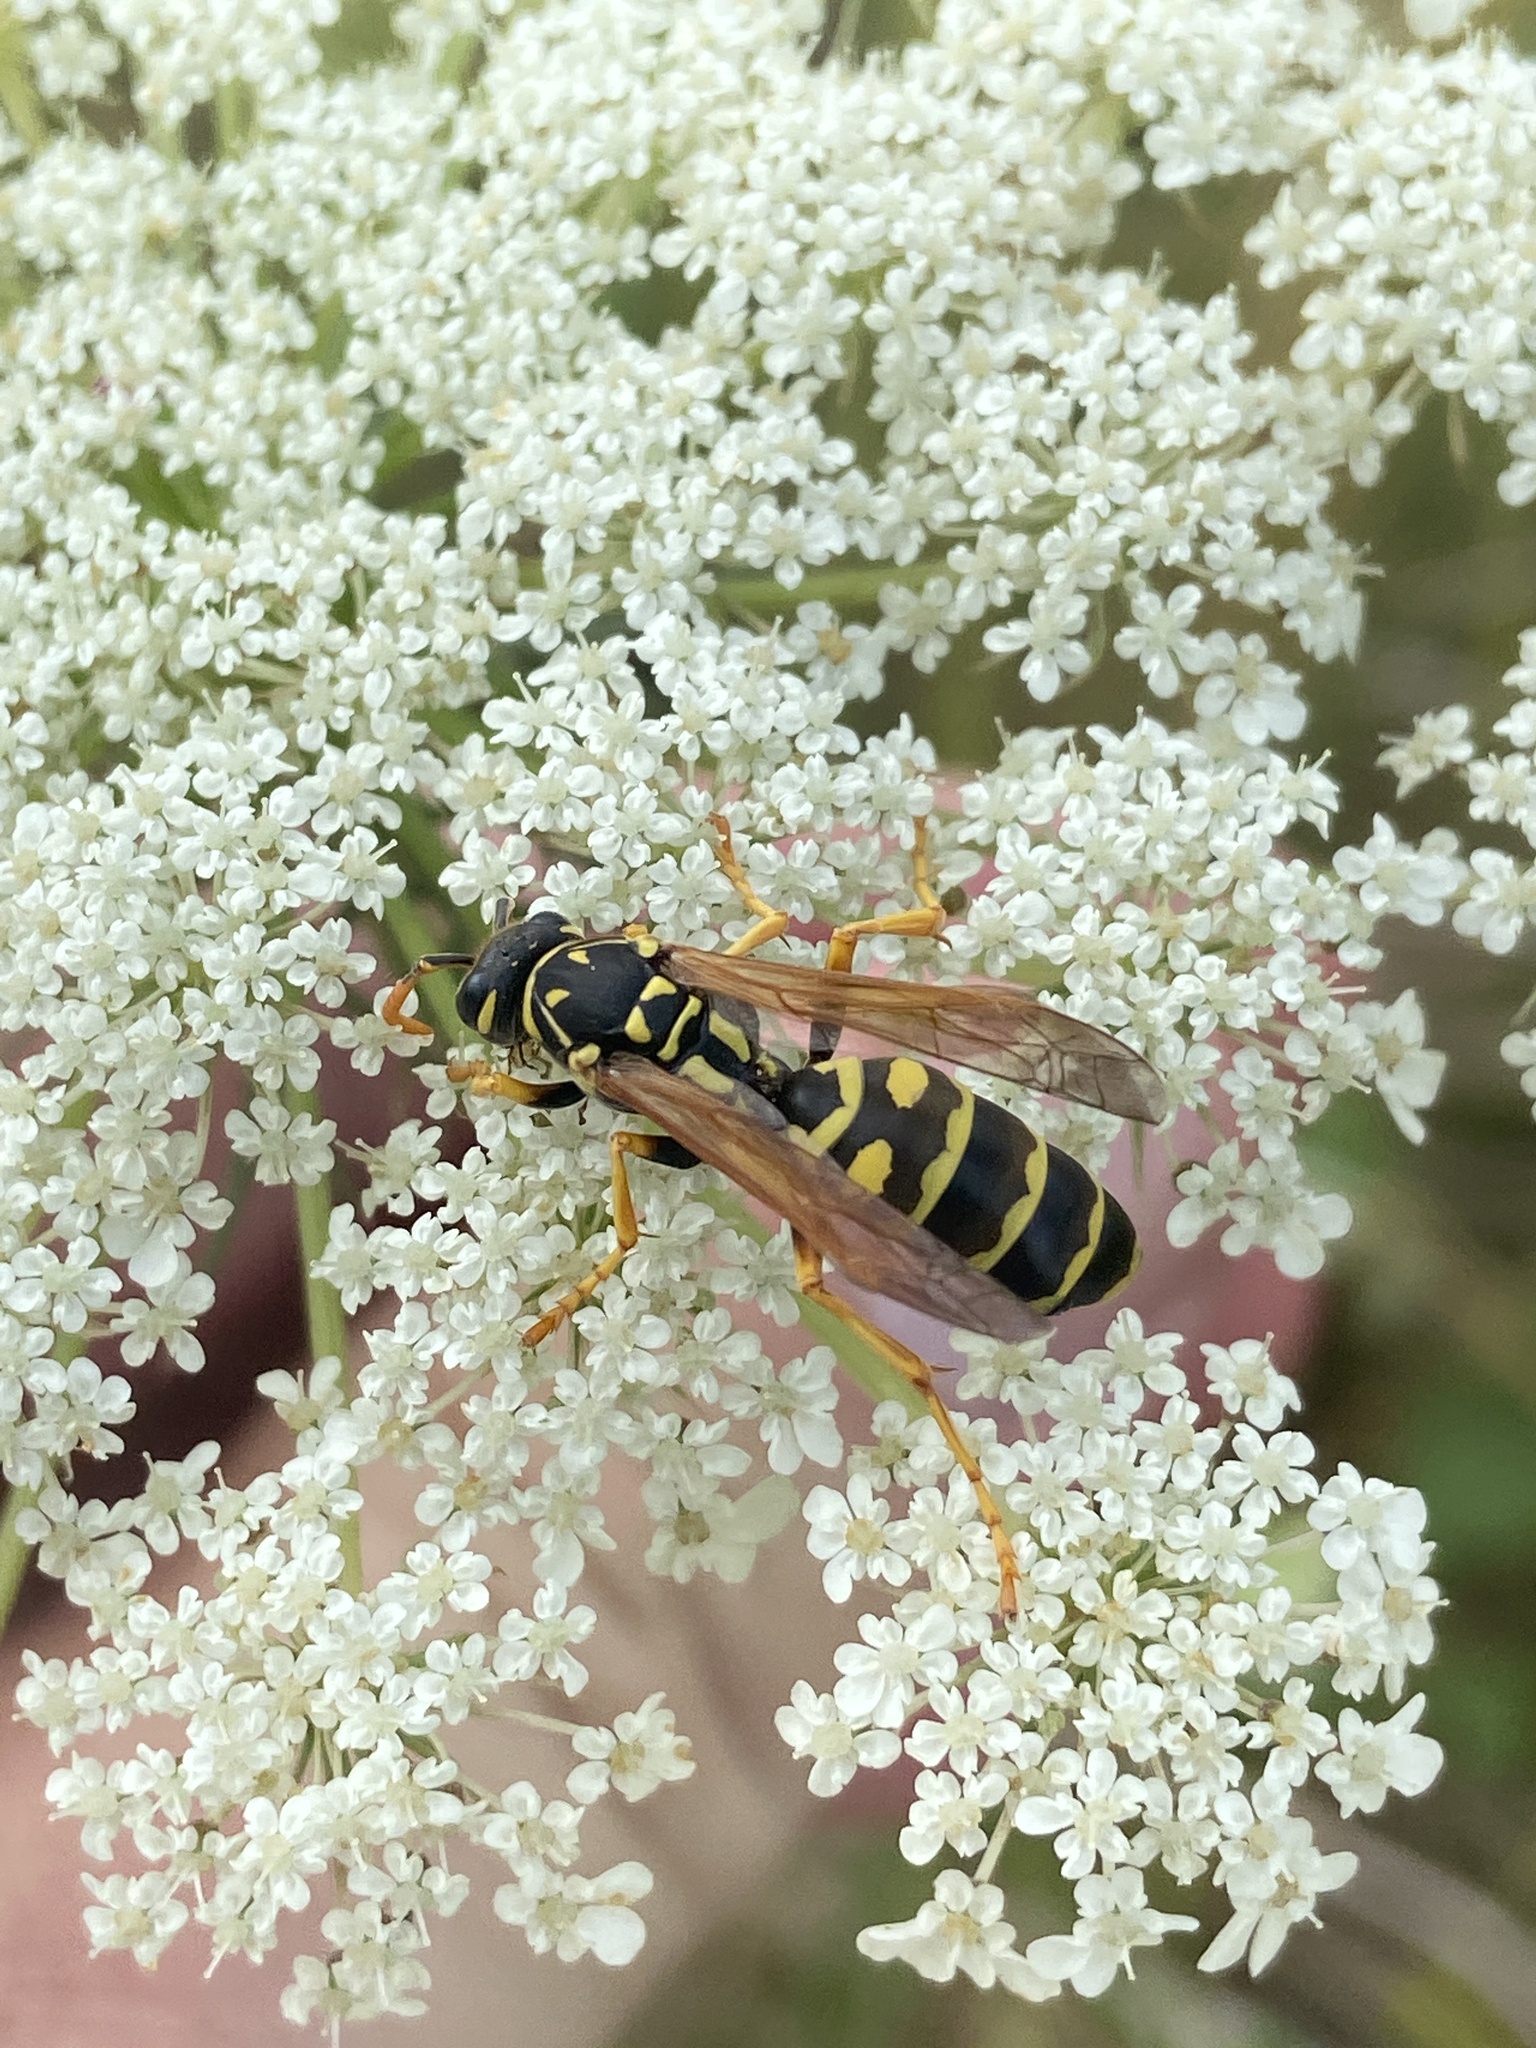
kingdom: Animalia
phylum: Arthropoda
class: Insecta
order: Hymenoptera
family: Eumenidae
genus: Polistes
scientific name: Polistes dominula
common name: Paper wasp
